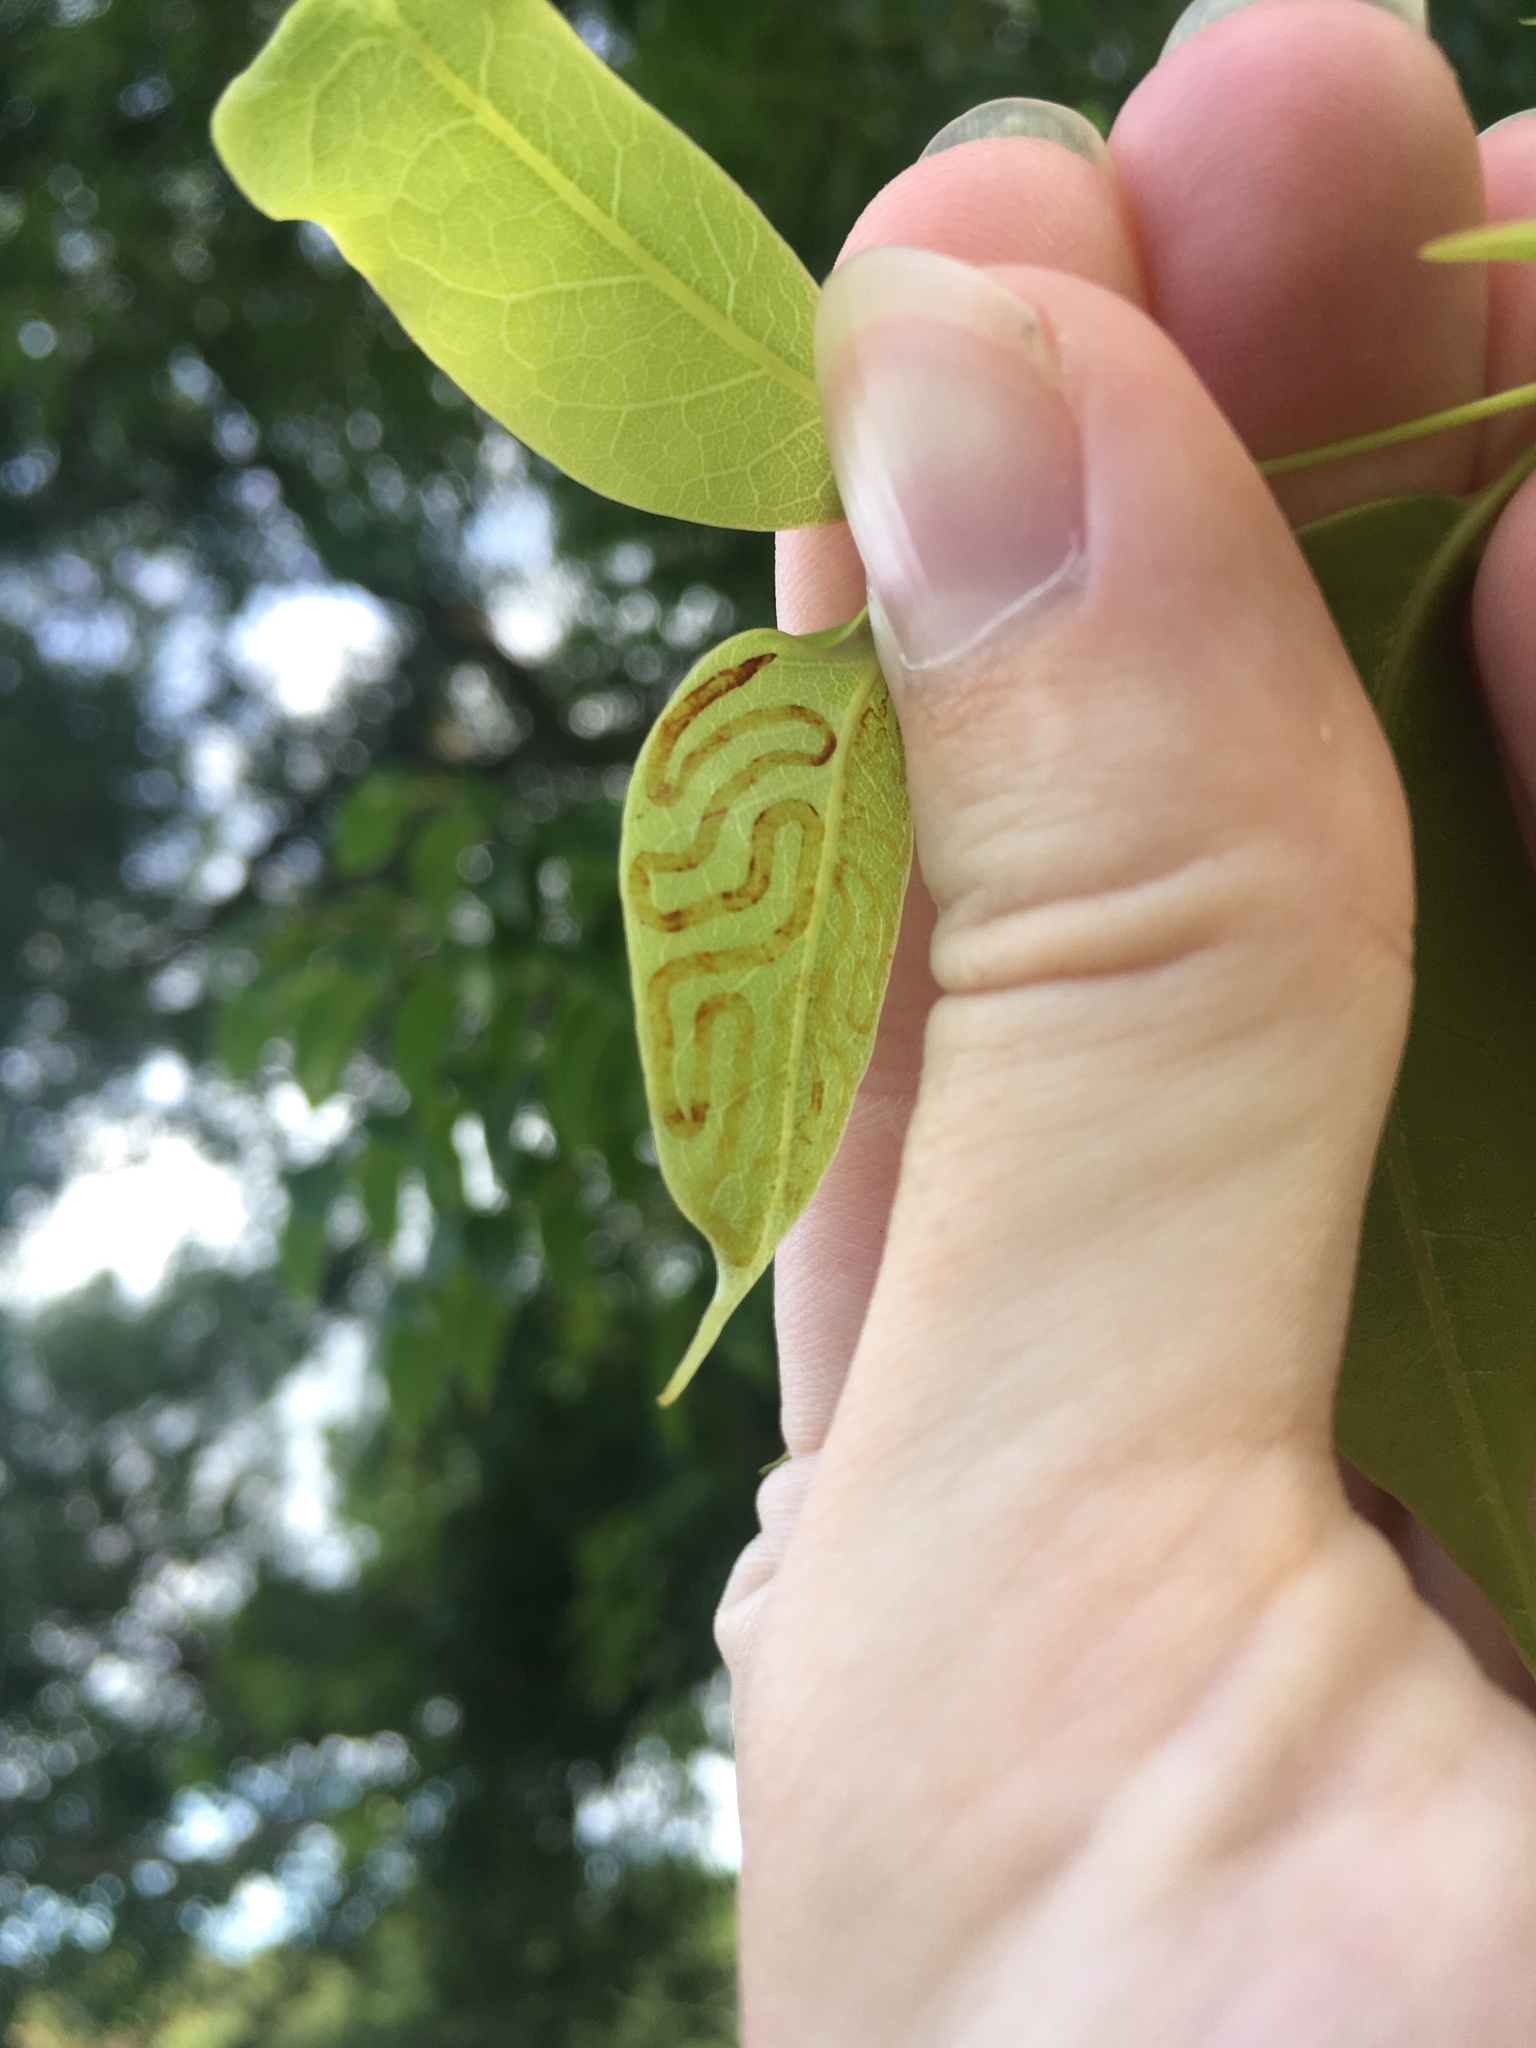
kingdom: Animalia
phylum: Arthropoda
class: Insecta
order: Lepidoptera
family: Gracillariidae
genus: Phyllocnistis
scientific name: Phyllocnistis meliacella
